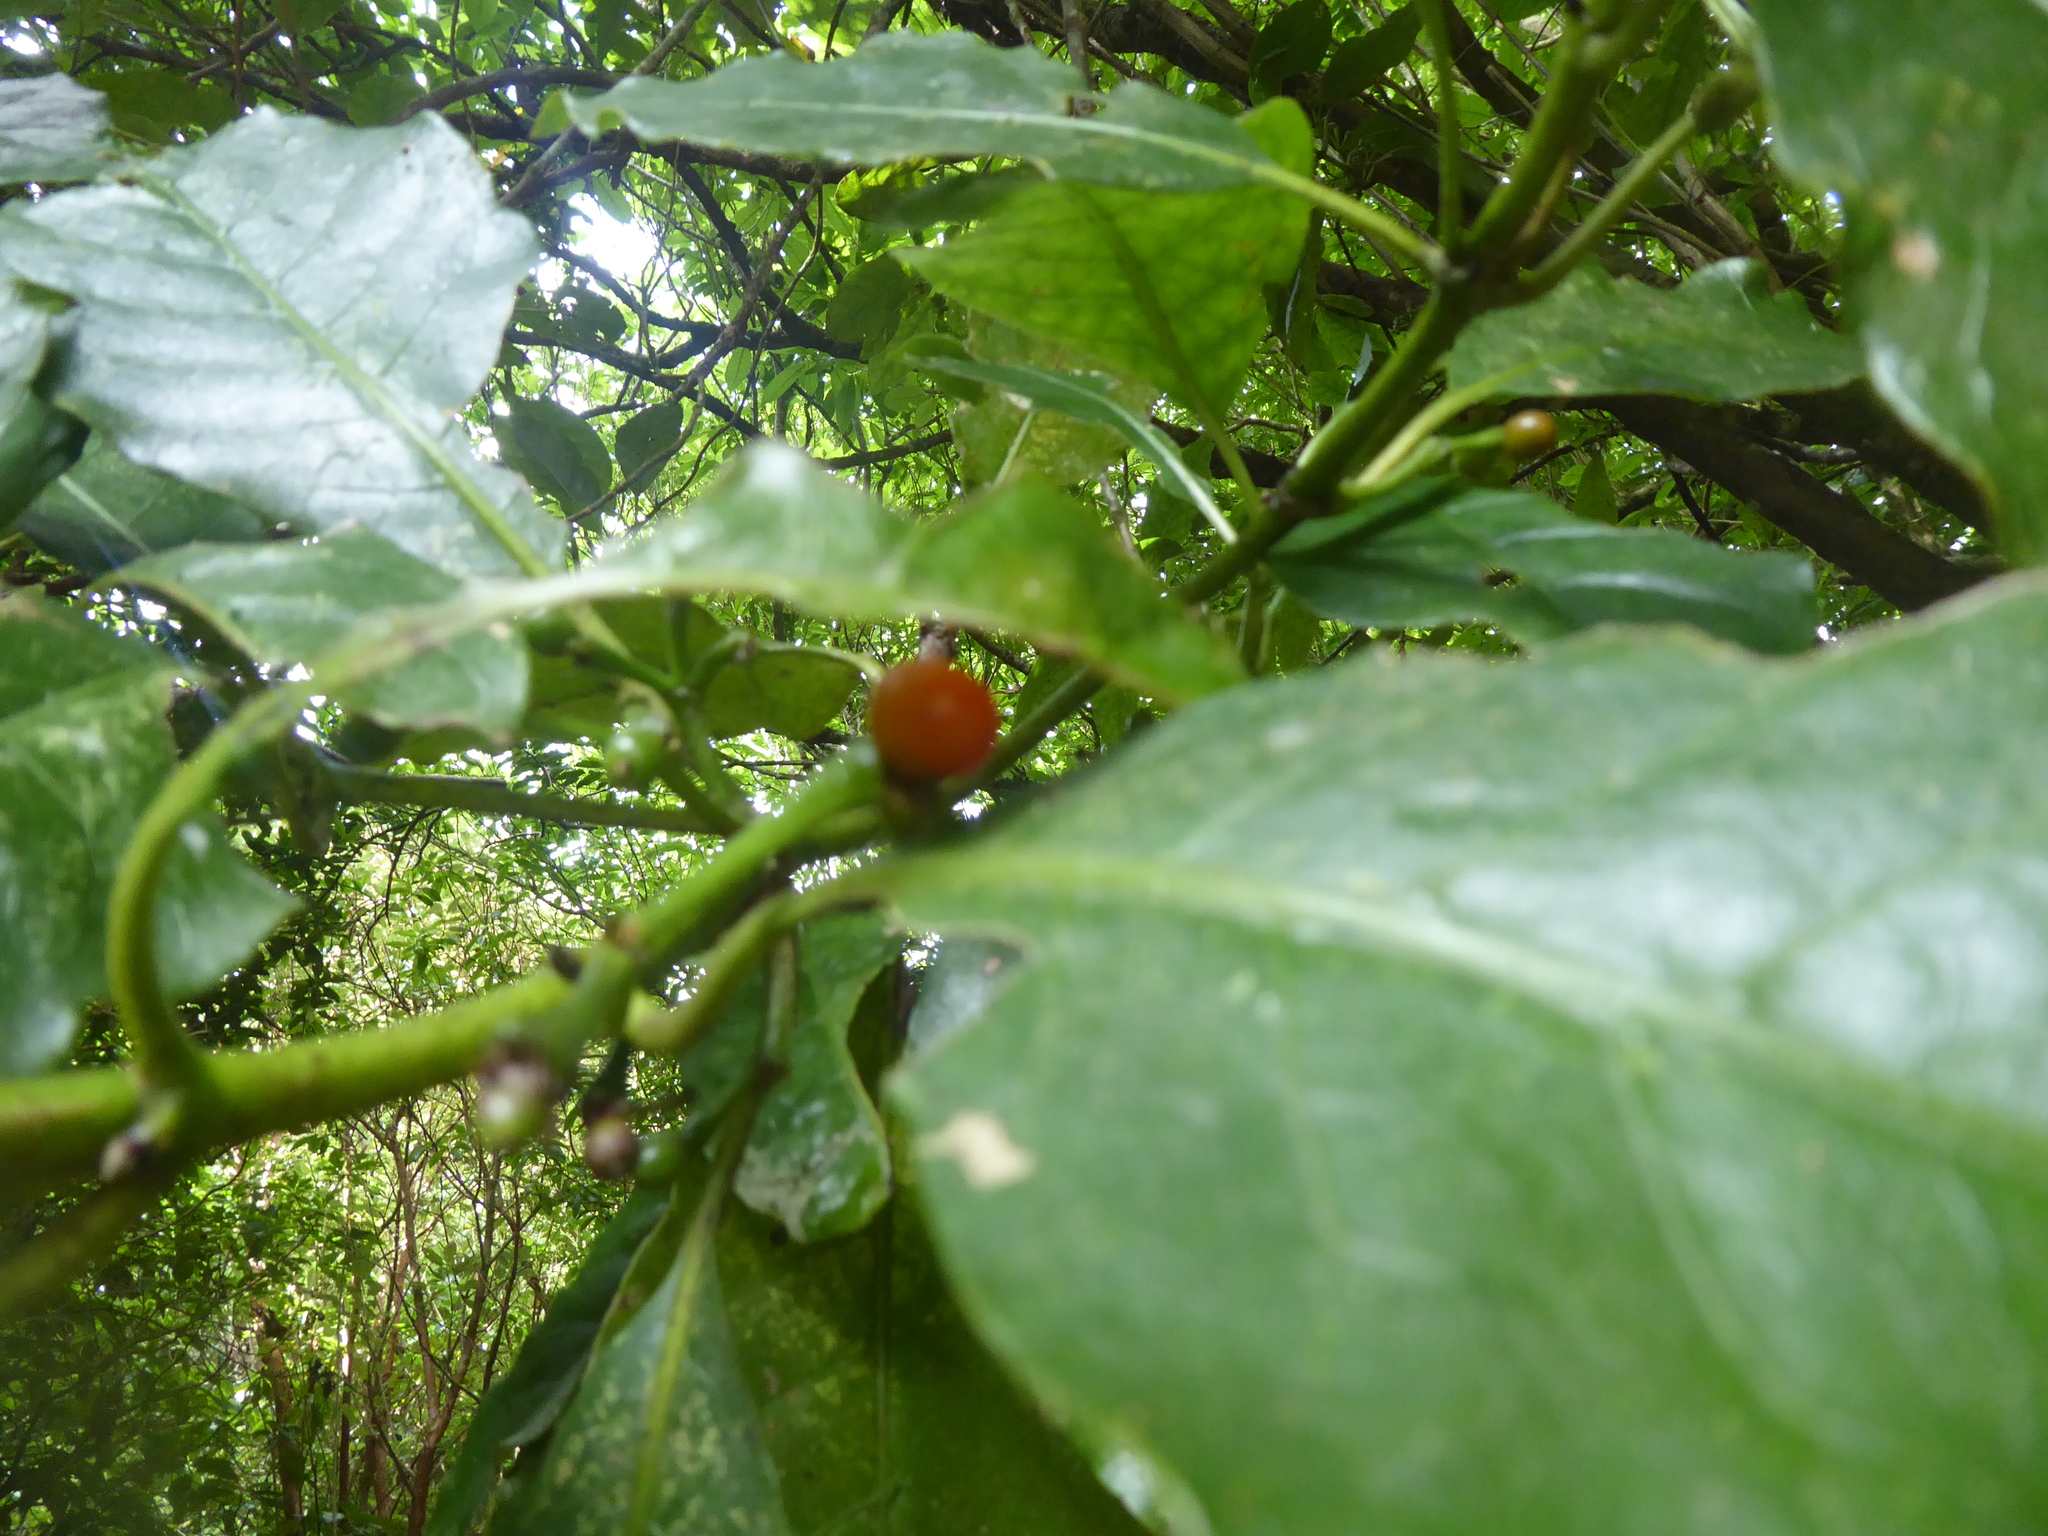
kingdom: Plantae
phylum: Tracheophyta
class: Magnoliopsida
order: Gentianales
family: Rubiaceae
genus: Coprosma
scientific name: Coprosma autumnalis
